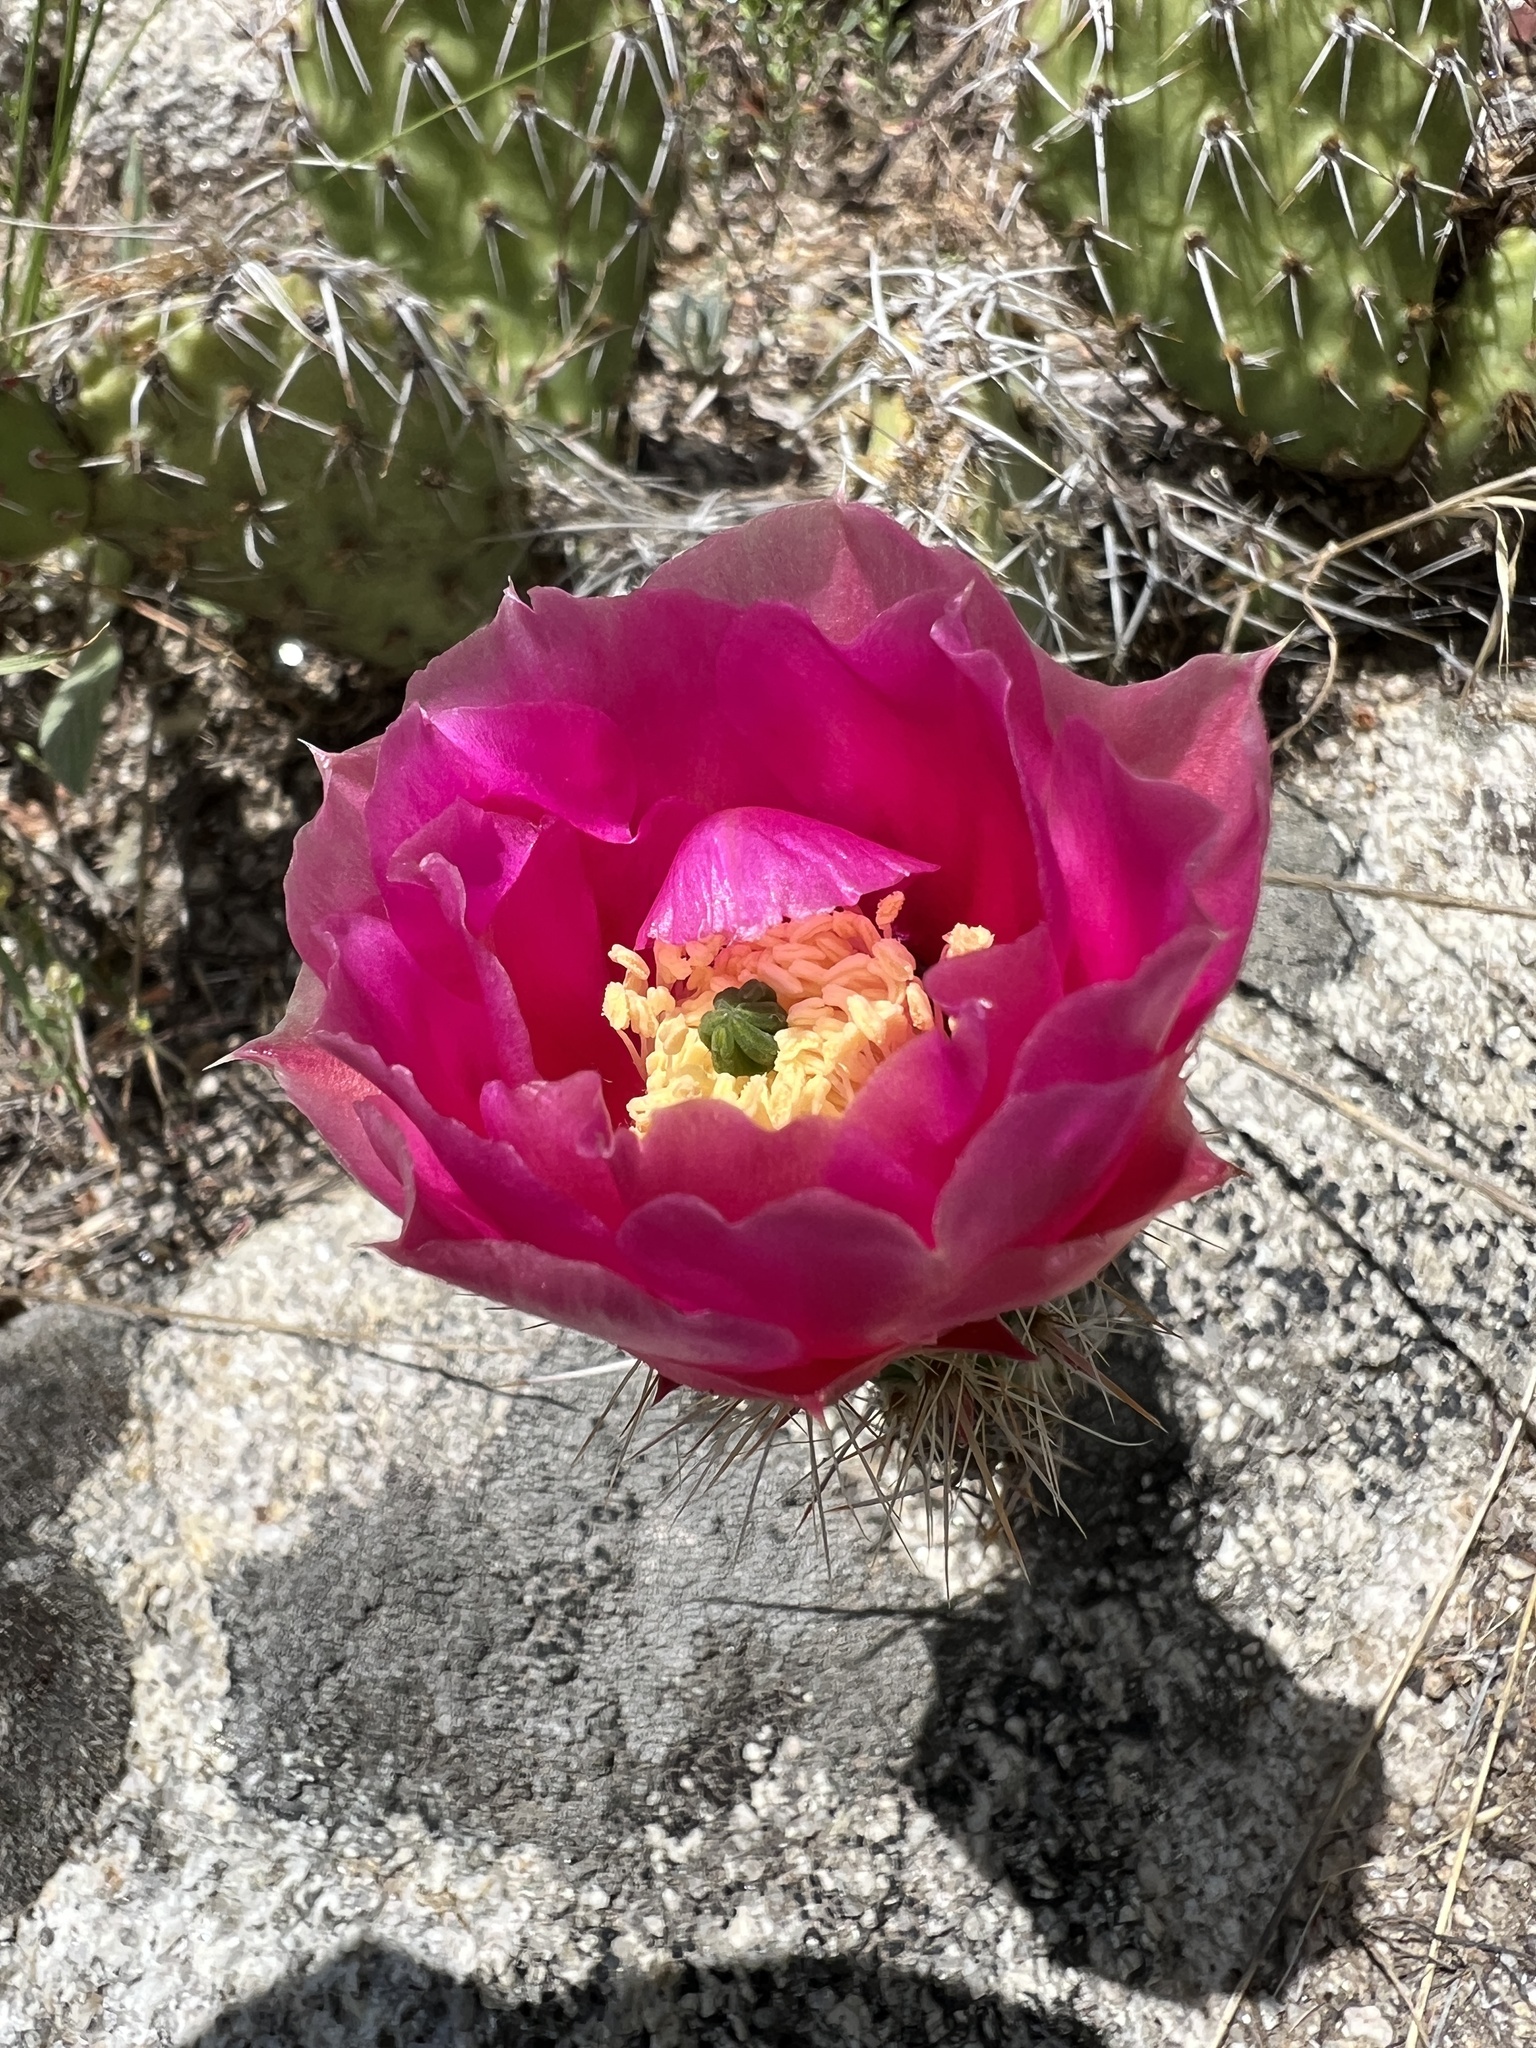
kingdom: Plantae
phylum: Tracheophyta
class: Magnoliopsida
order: Caryophyllales
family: Cactaceae
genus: Opuntia
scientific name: Opuntia polyacantha
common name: Plains prickly-pear
